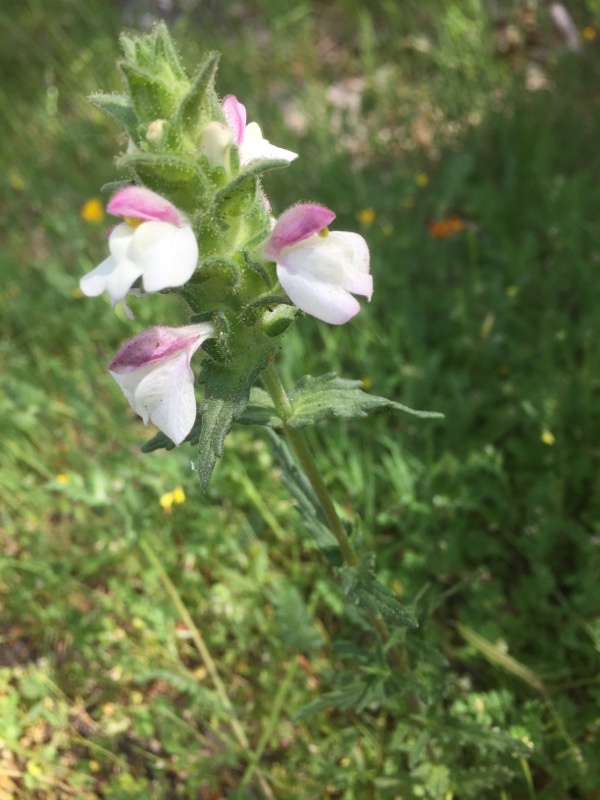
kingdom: Plantae
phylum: Tracheophyta
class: Magnoliopsida
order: Lamiales
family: Orobanchaceae
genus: Bellardia
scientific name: Bellardia trixago
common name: Mediterranean lineseed
